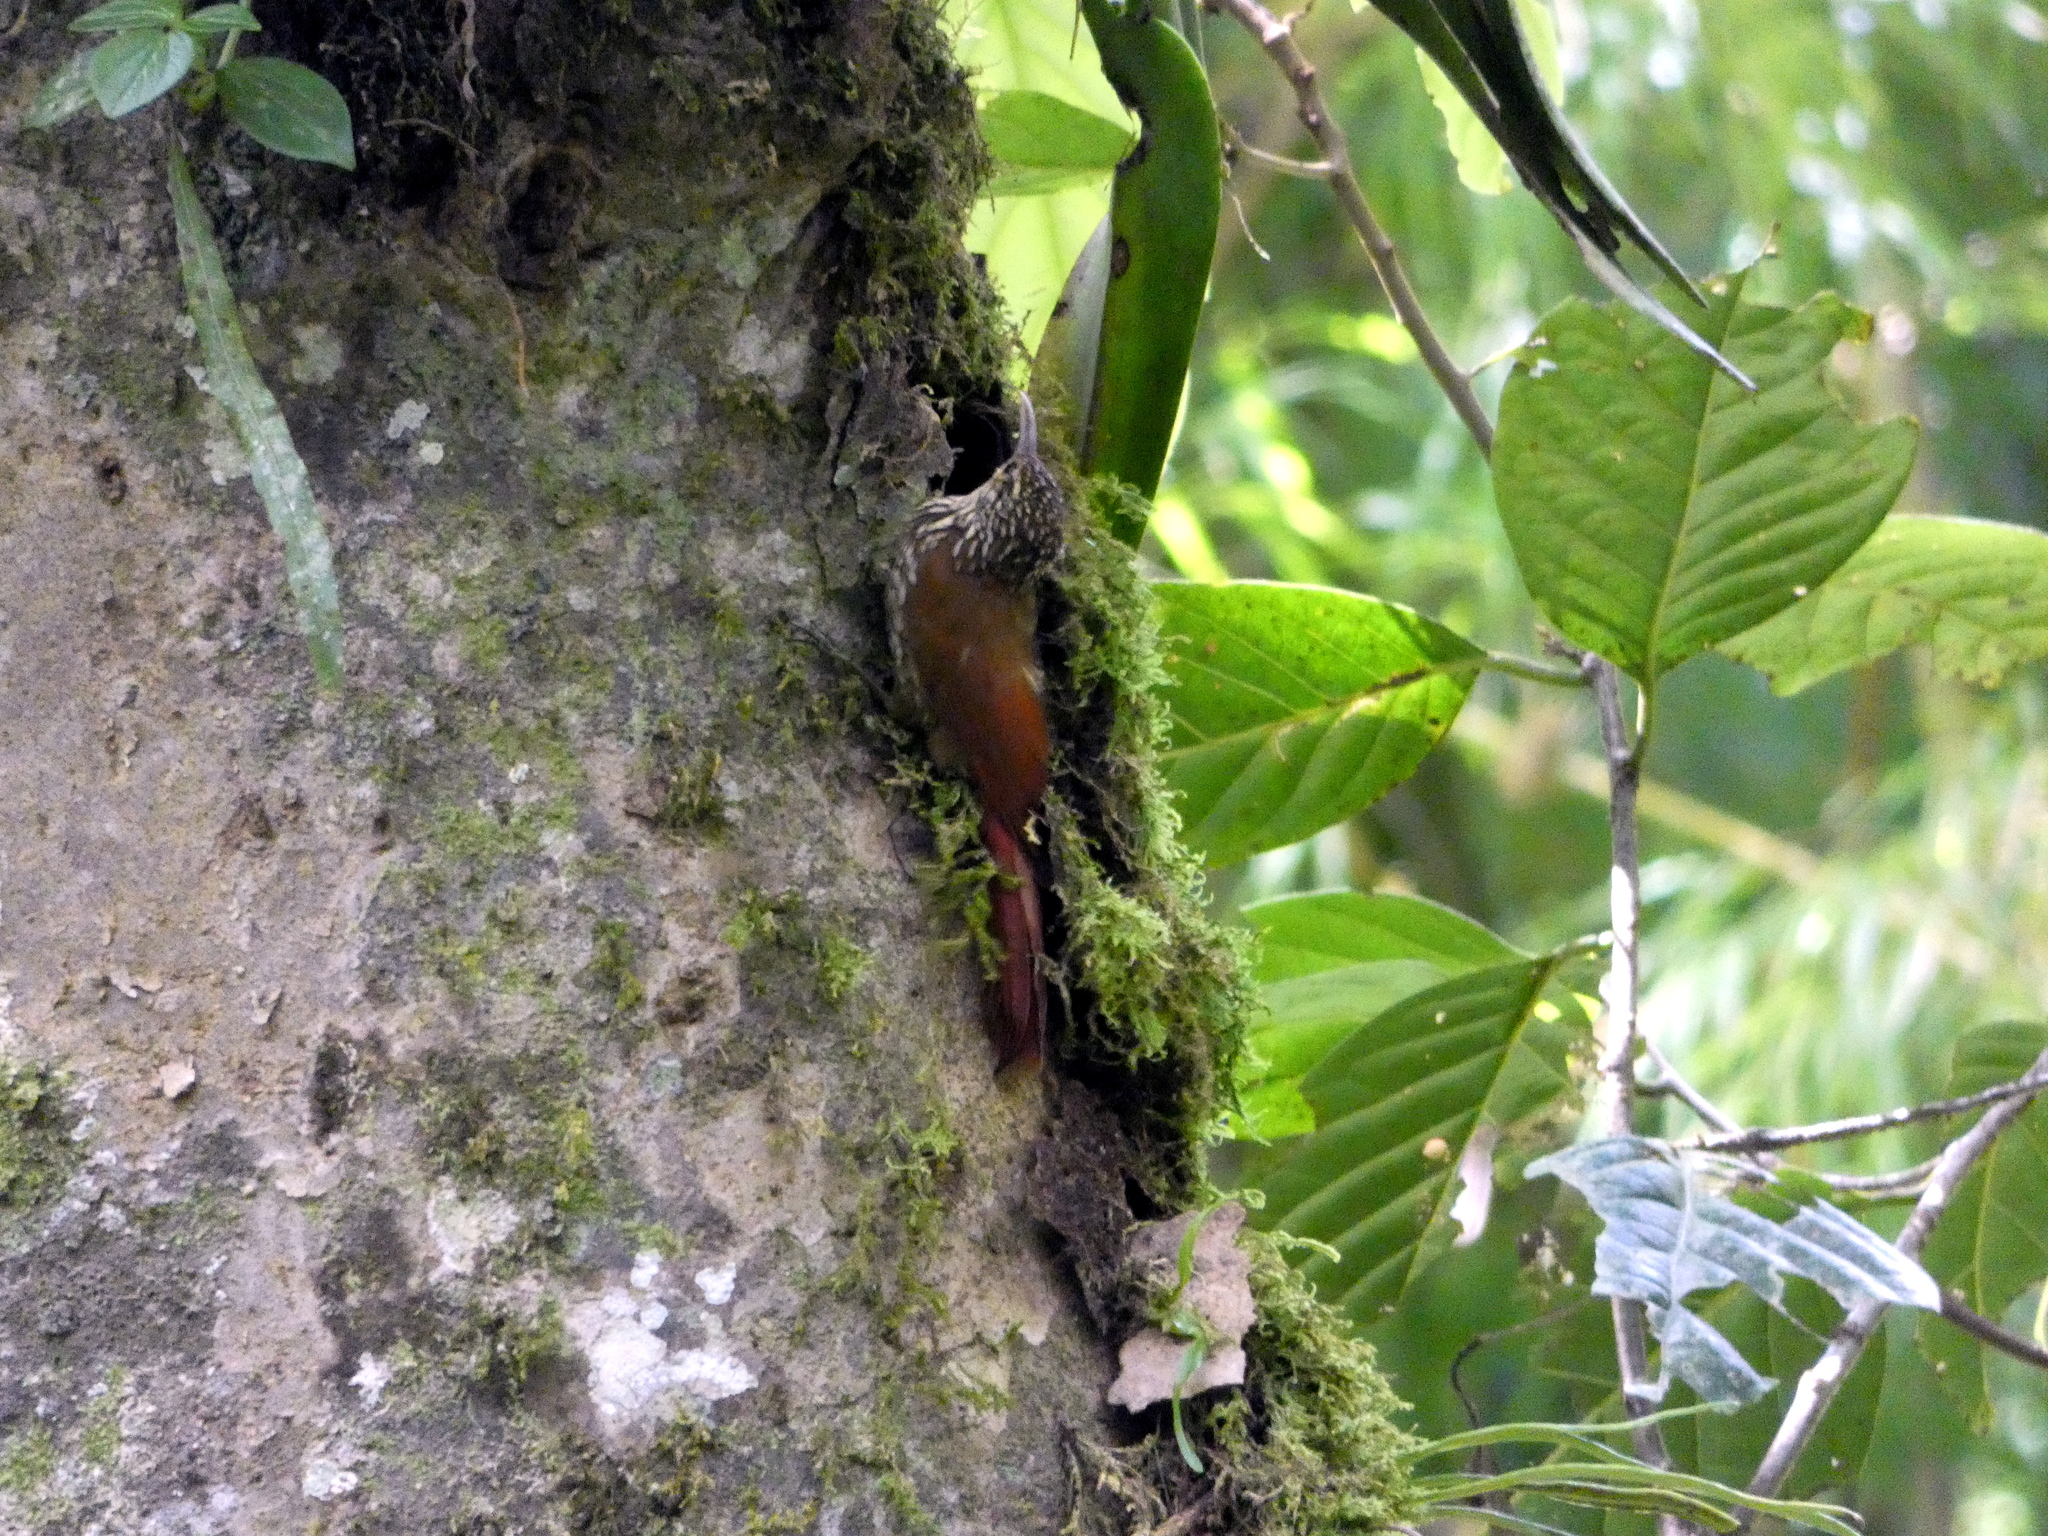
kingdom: Animalia
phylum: Chordata
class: Aves
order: Passeriformes
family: Furnariidae
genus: Lepidocolaptes
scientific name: Lepidocolaptes affinis
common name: Spot-crowned woodcreeper
